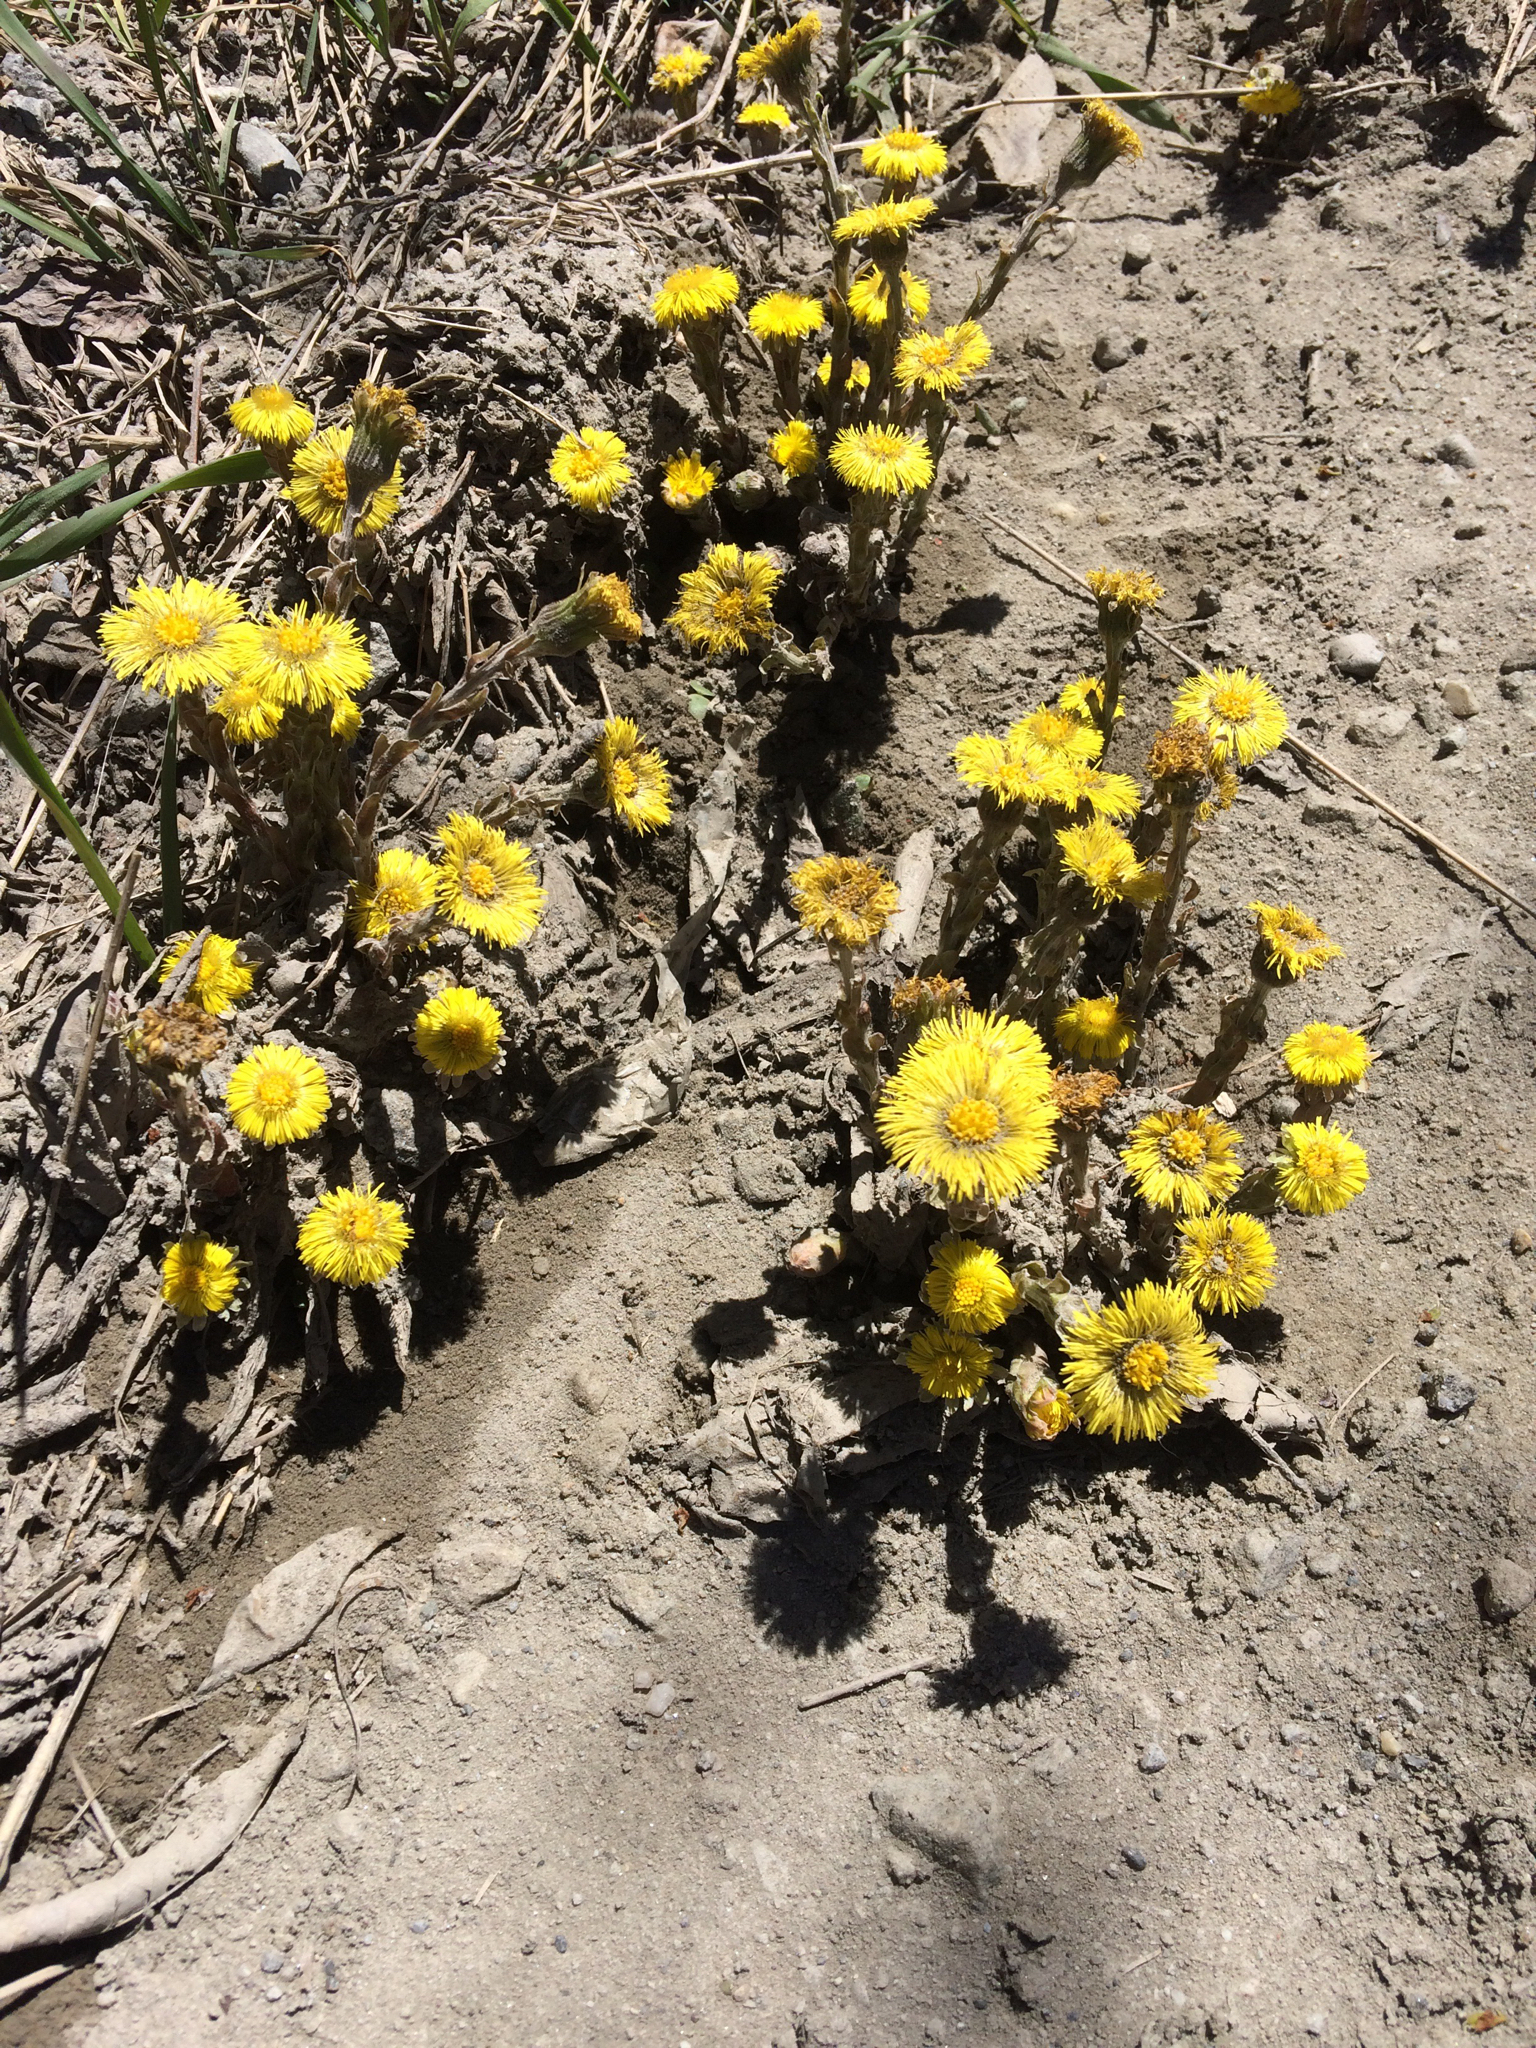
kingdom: Plantae
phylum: Tracheophyta
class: Magnoliopsida
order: Asterales
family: Asteraceae
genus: Tussilago
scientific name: Tussilago farfara
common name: Coltsfoot
